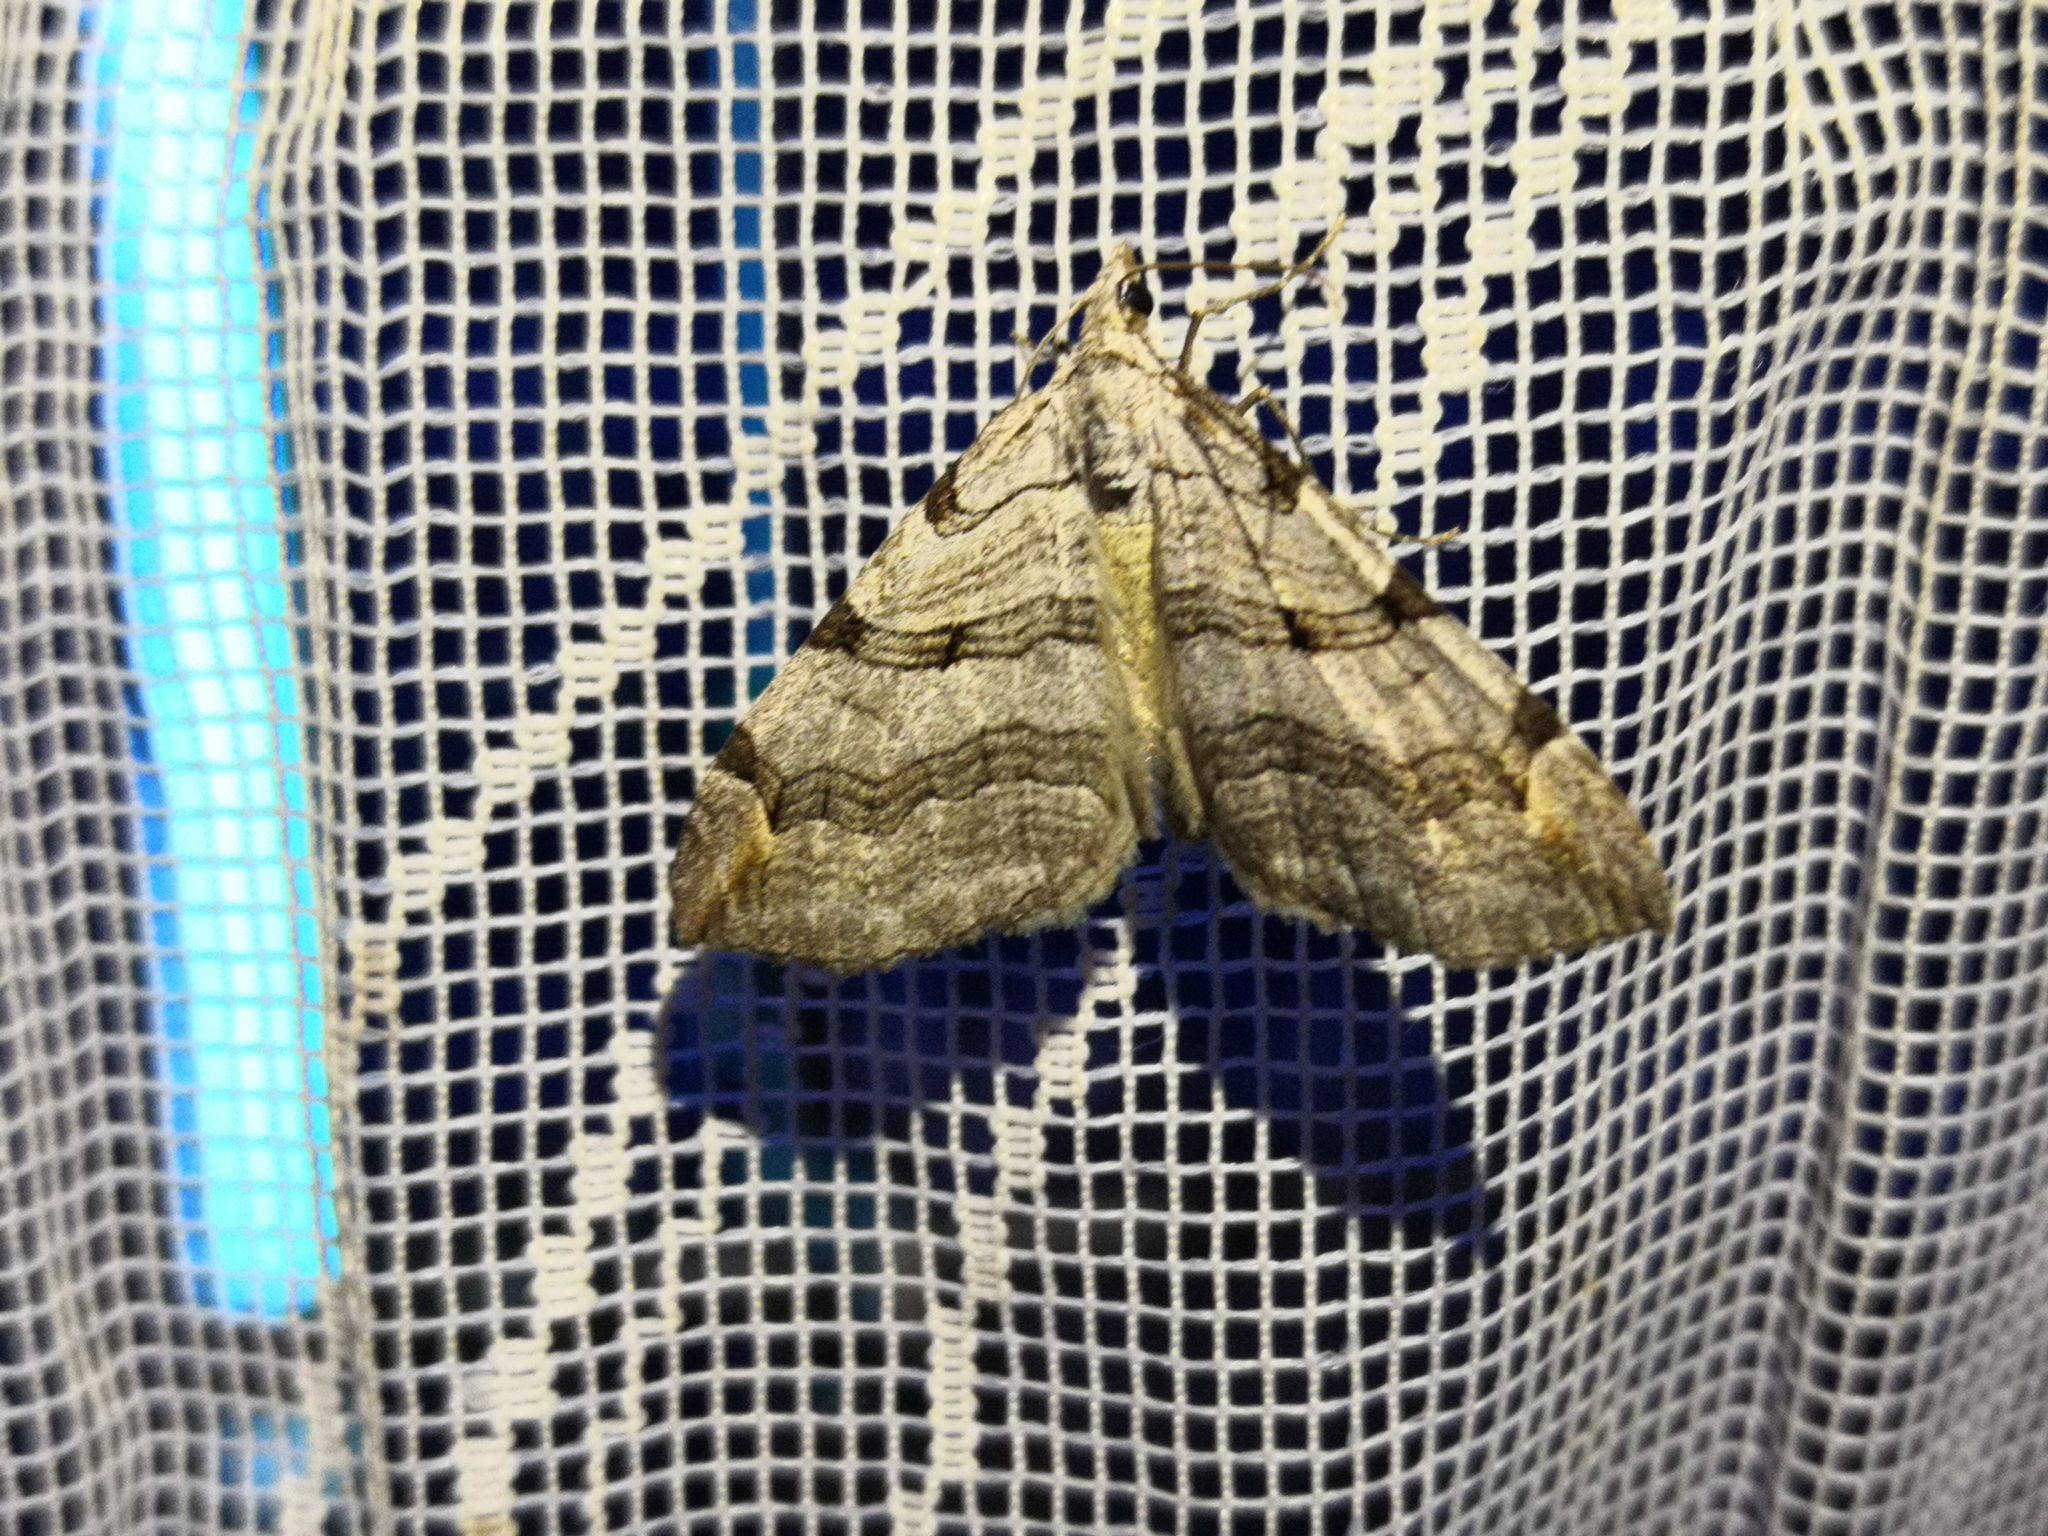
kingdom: Animalia
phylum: Arthropoda
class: Insecta
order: Lepidoptera
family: Geometridae
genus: Aplocera
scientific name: Aplocera plagiata
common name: Treble-bar
